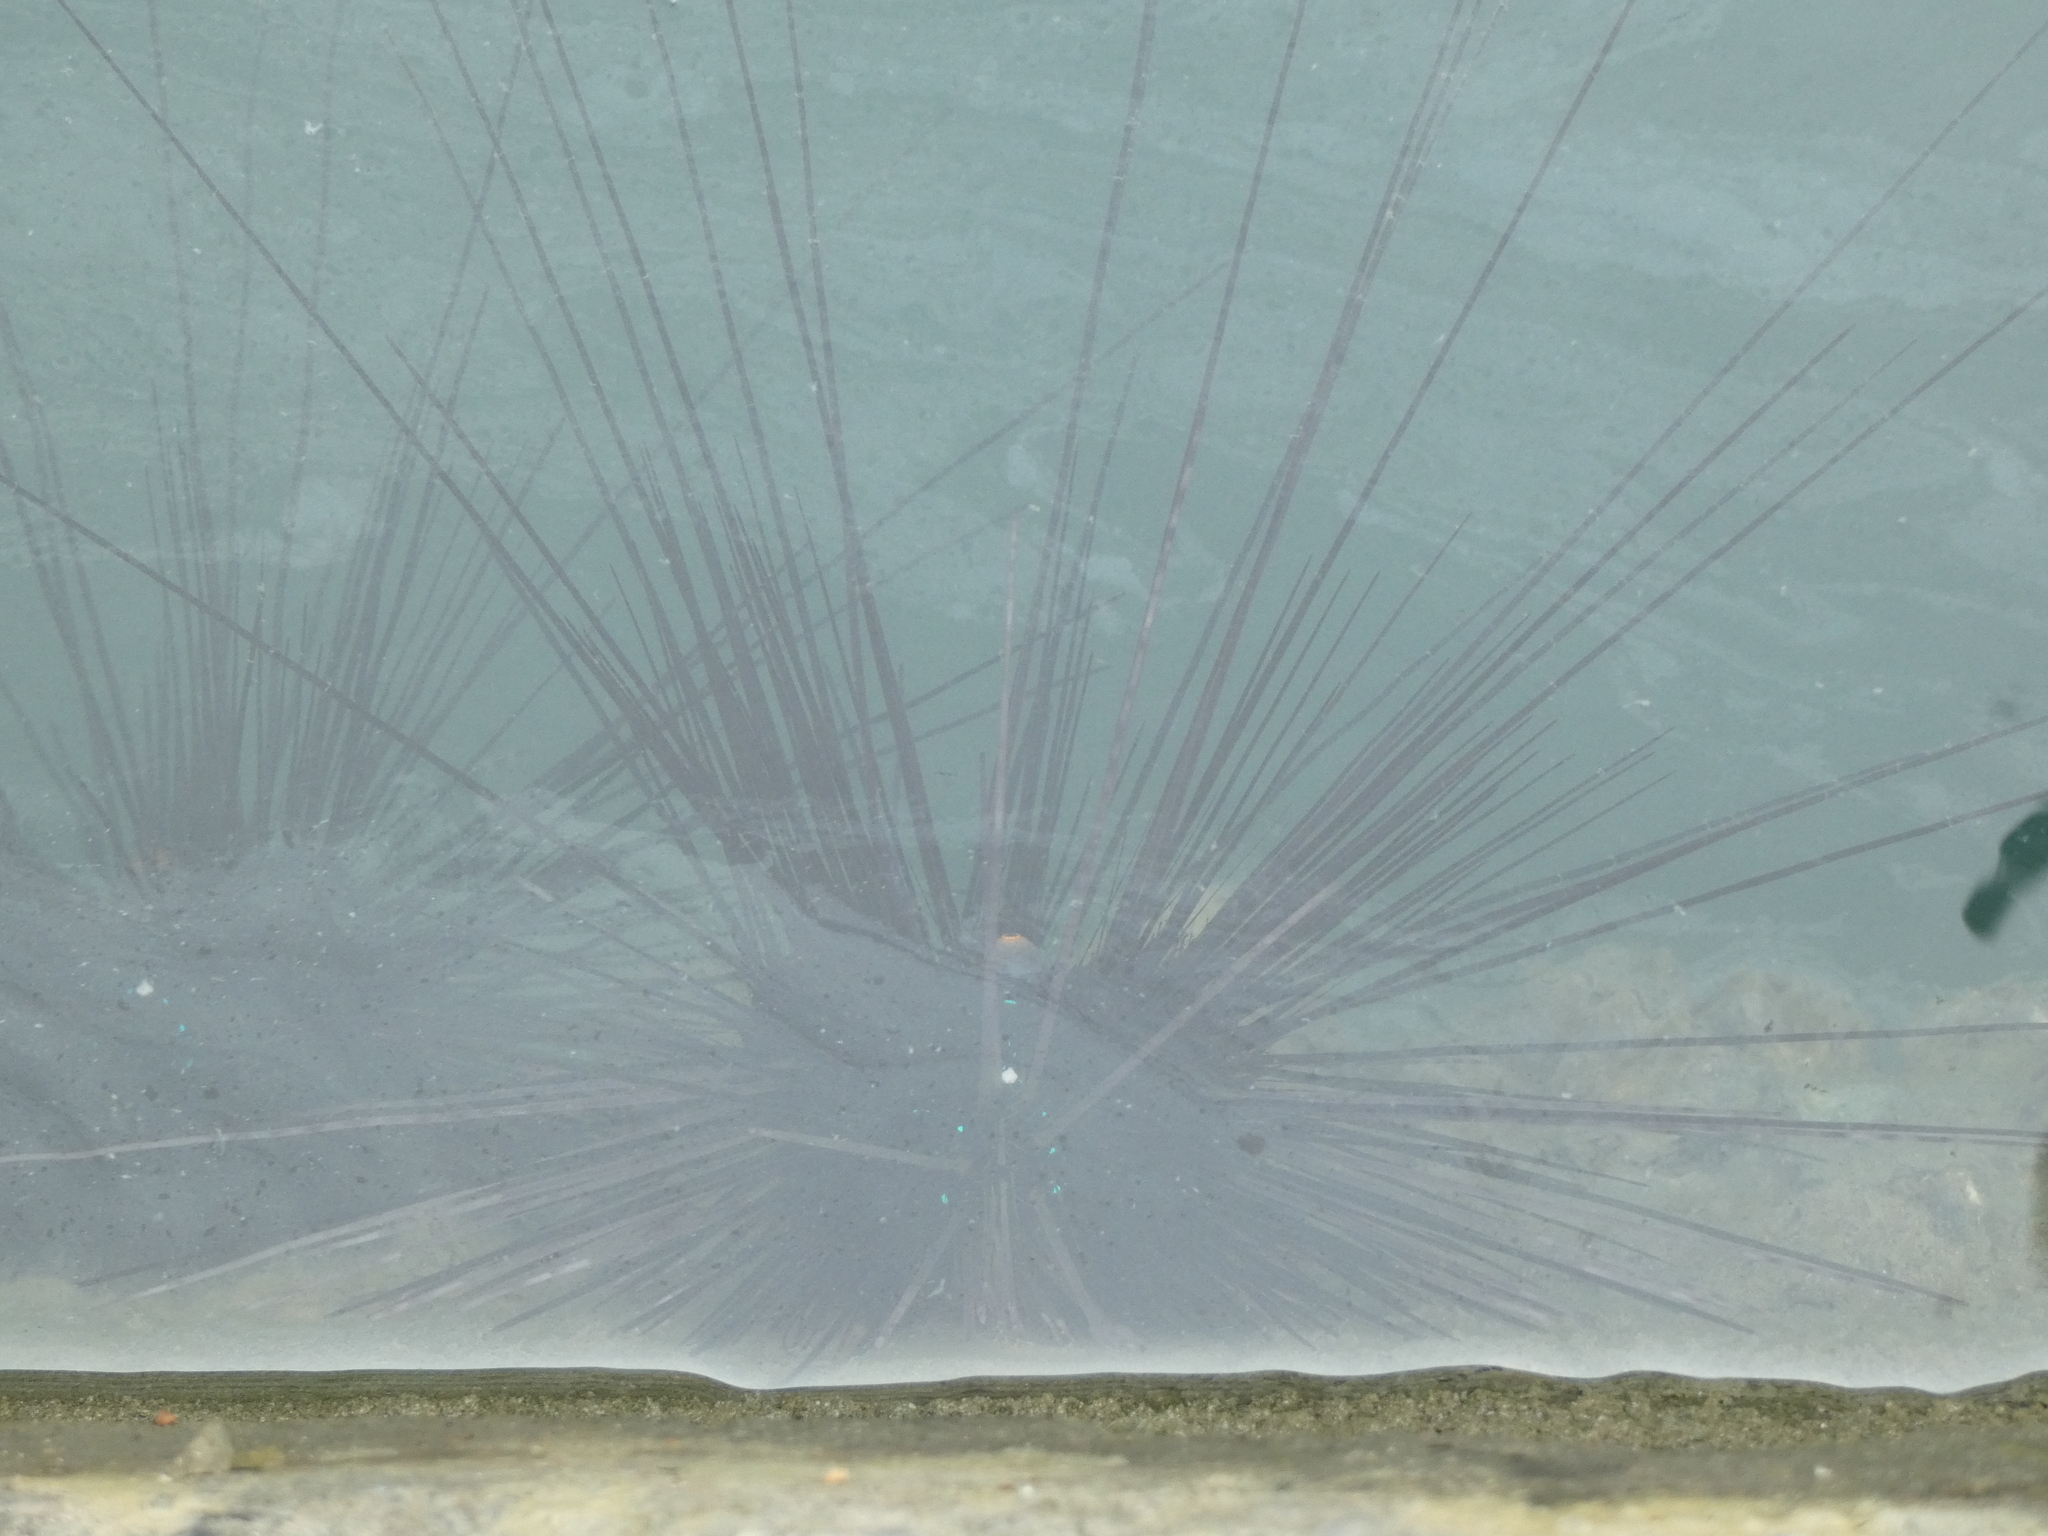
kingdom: Animalia
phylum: Echinodermata
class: Echinoidea
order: Diadematoida
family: Diadematidae
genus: Diadema
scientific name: Diadema setosum
